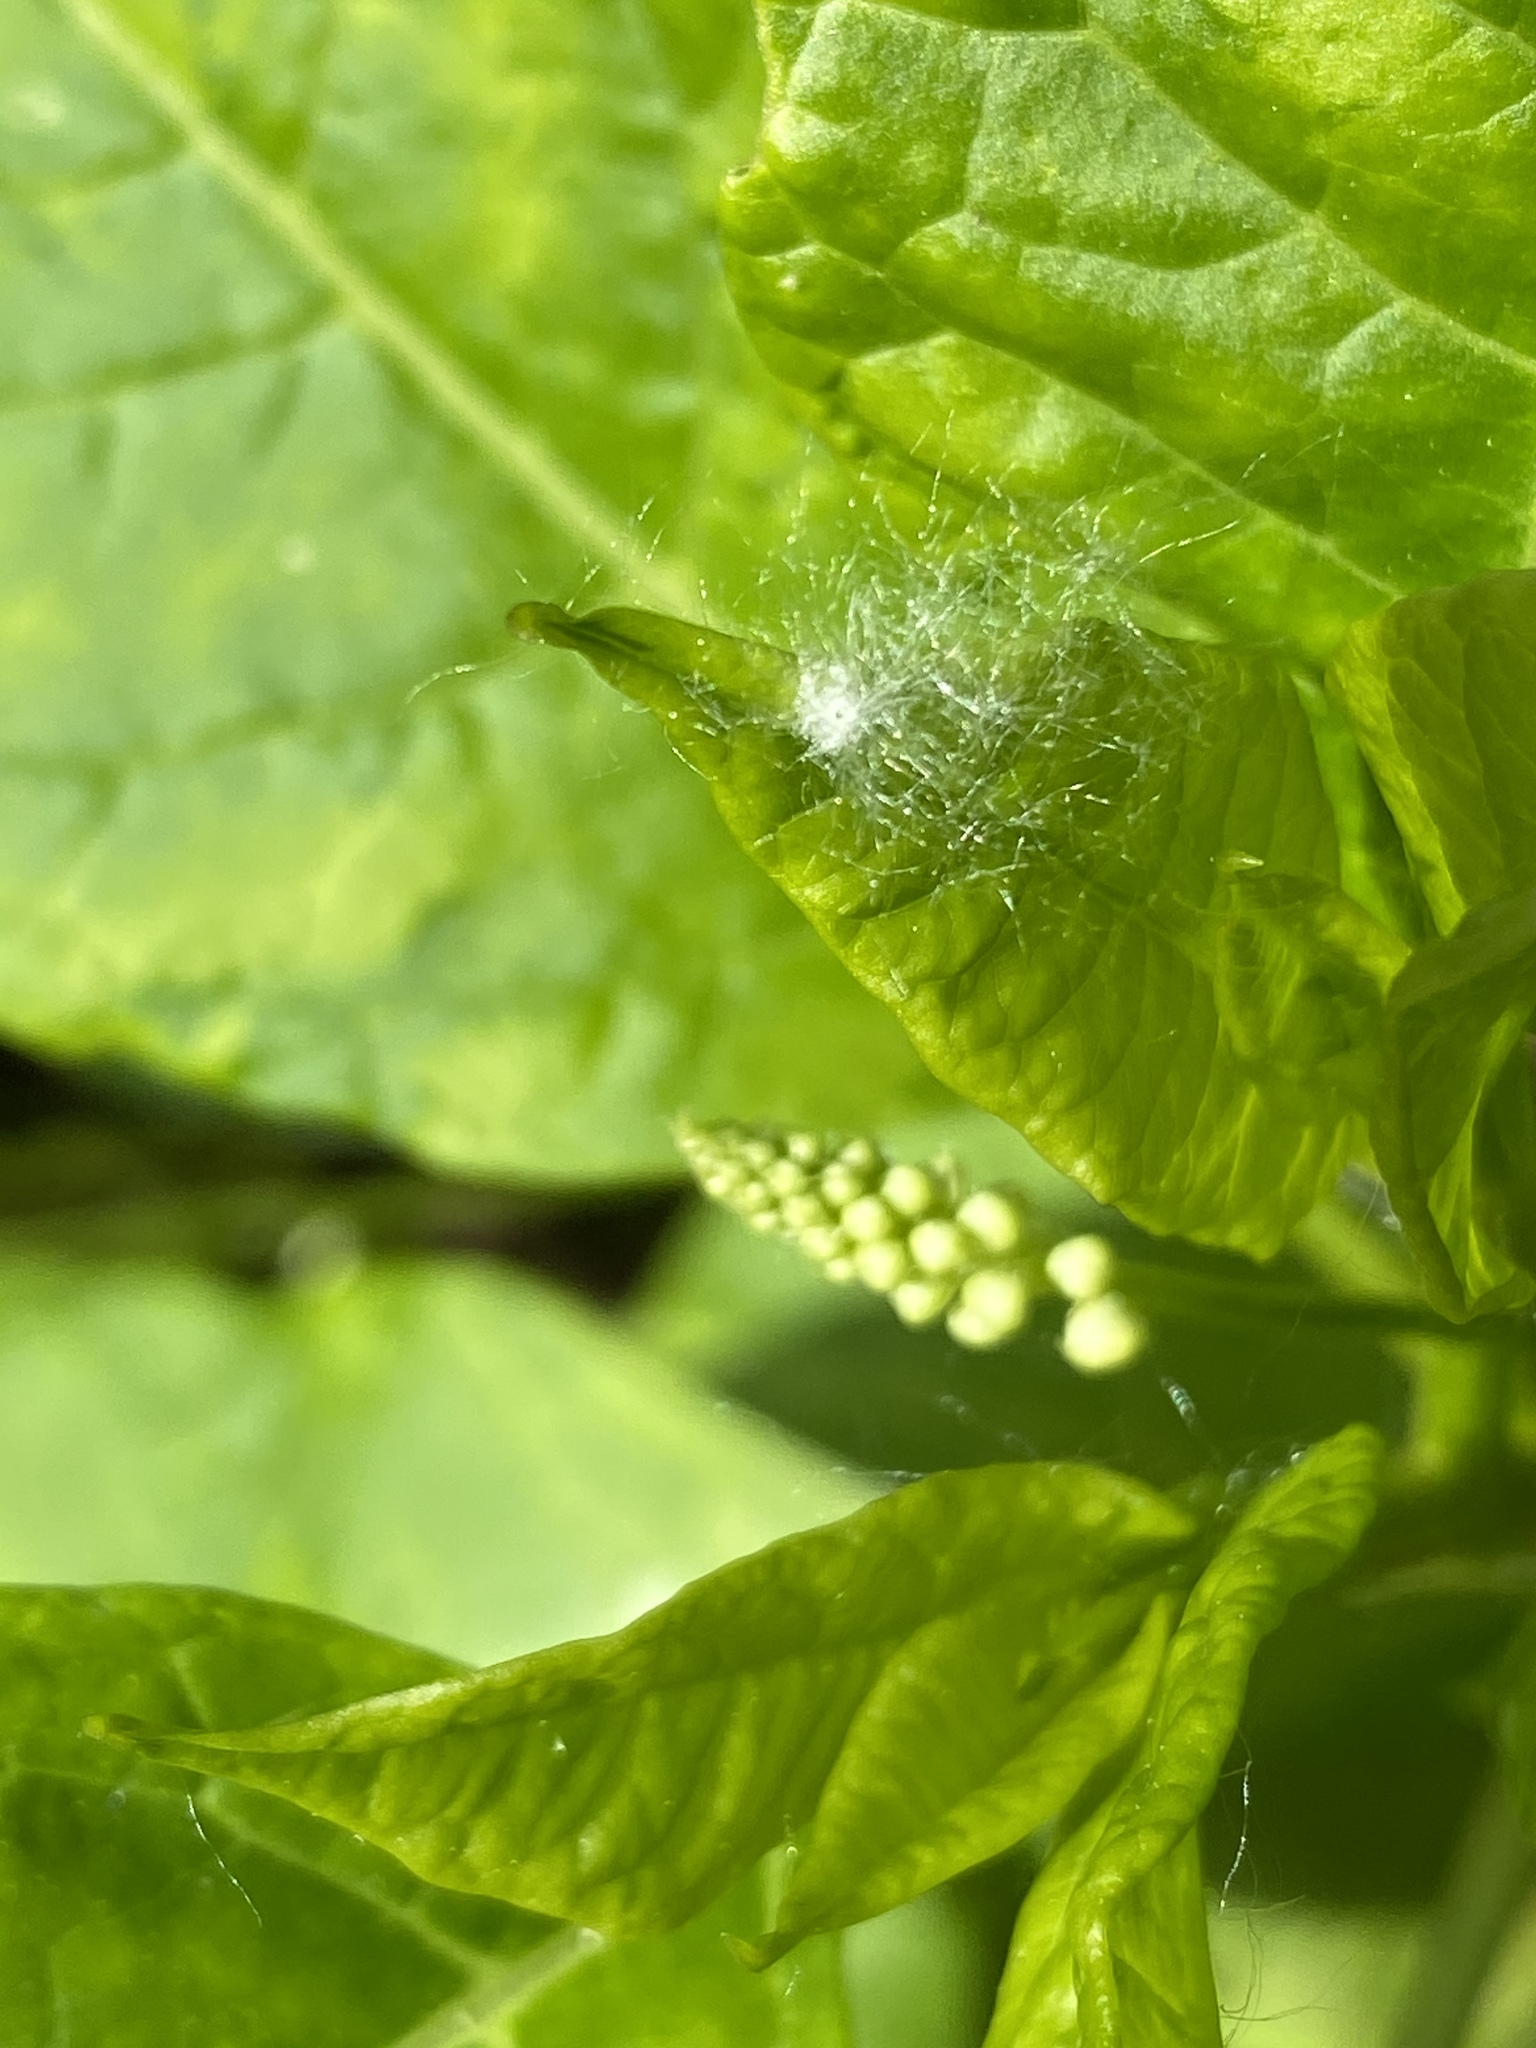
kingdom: Plantae
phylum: Tracheophyta
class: Magnoliopsida
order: Caryophyllales
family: Phytolaccaceae
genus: Phytolacca
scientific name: Phytolacca americana
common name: American pokeweed
